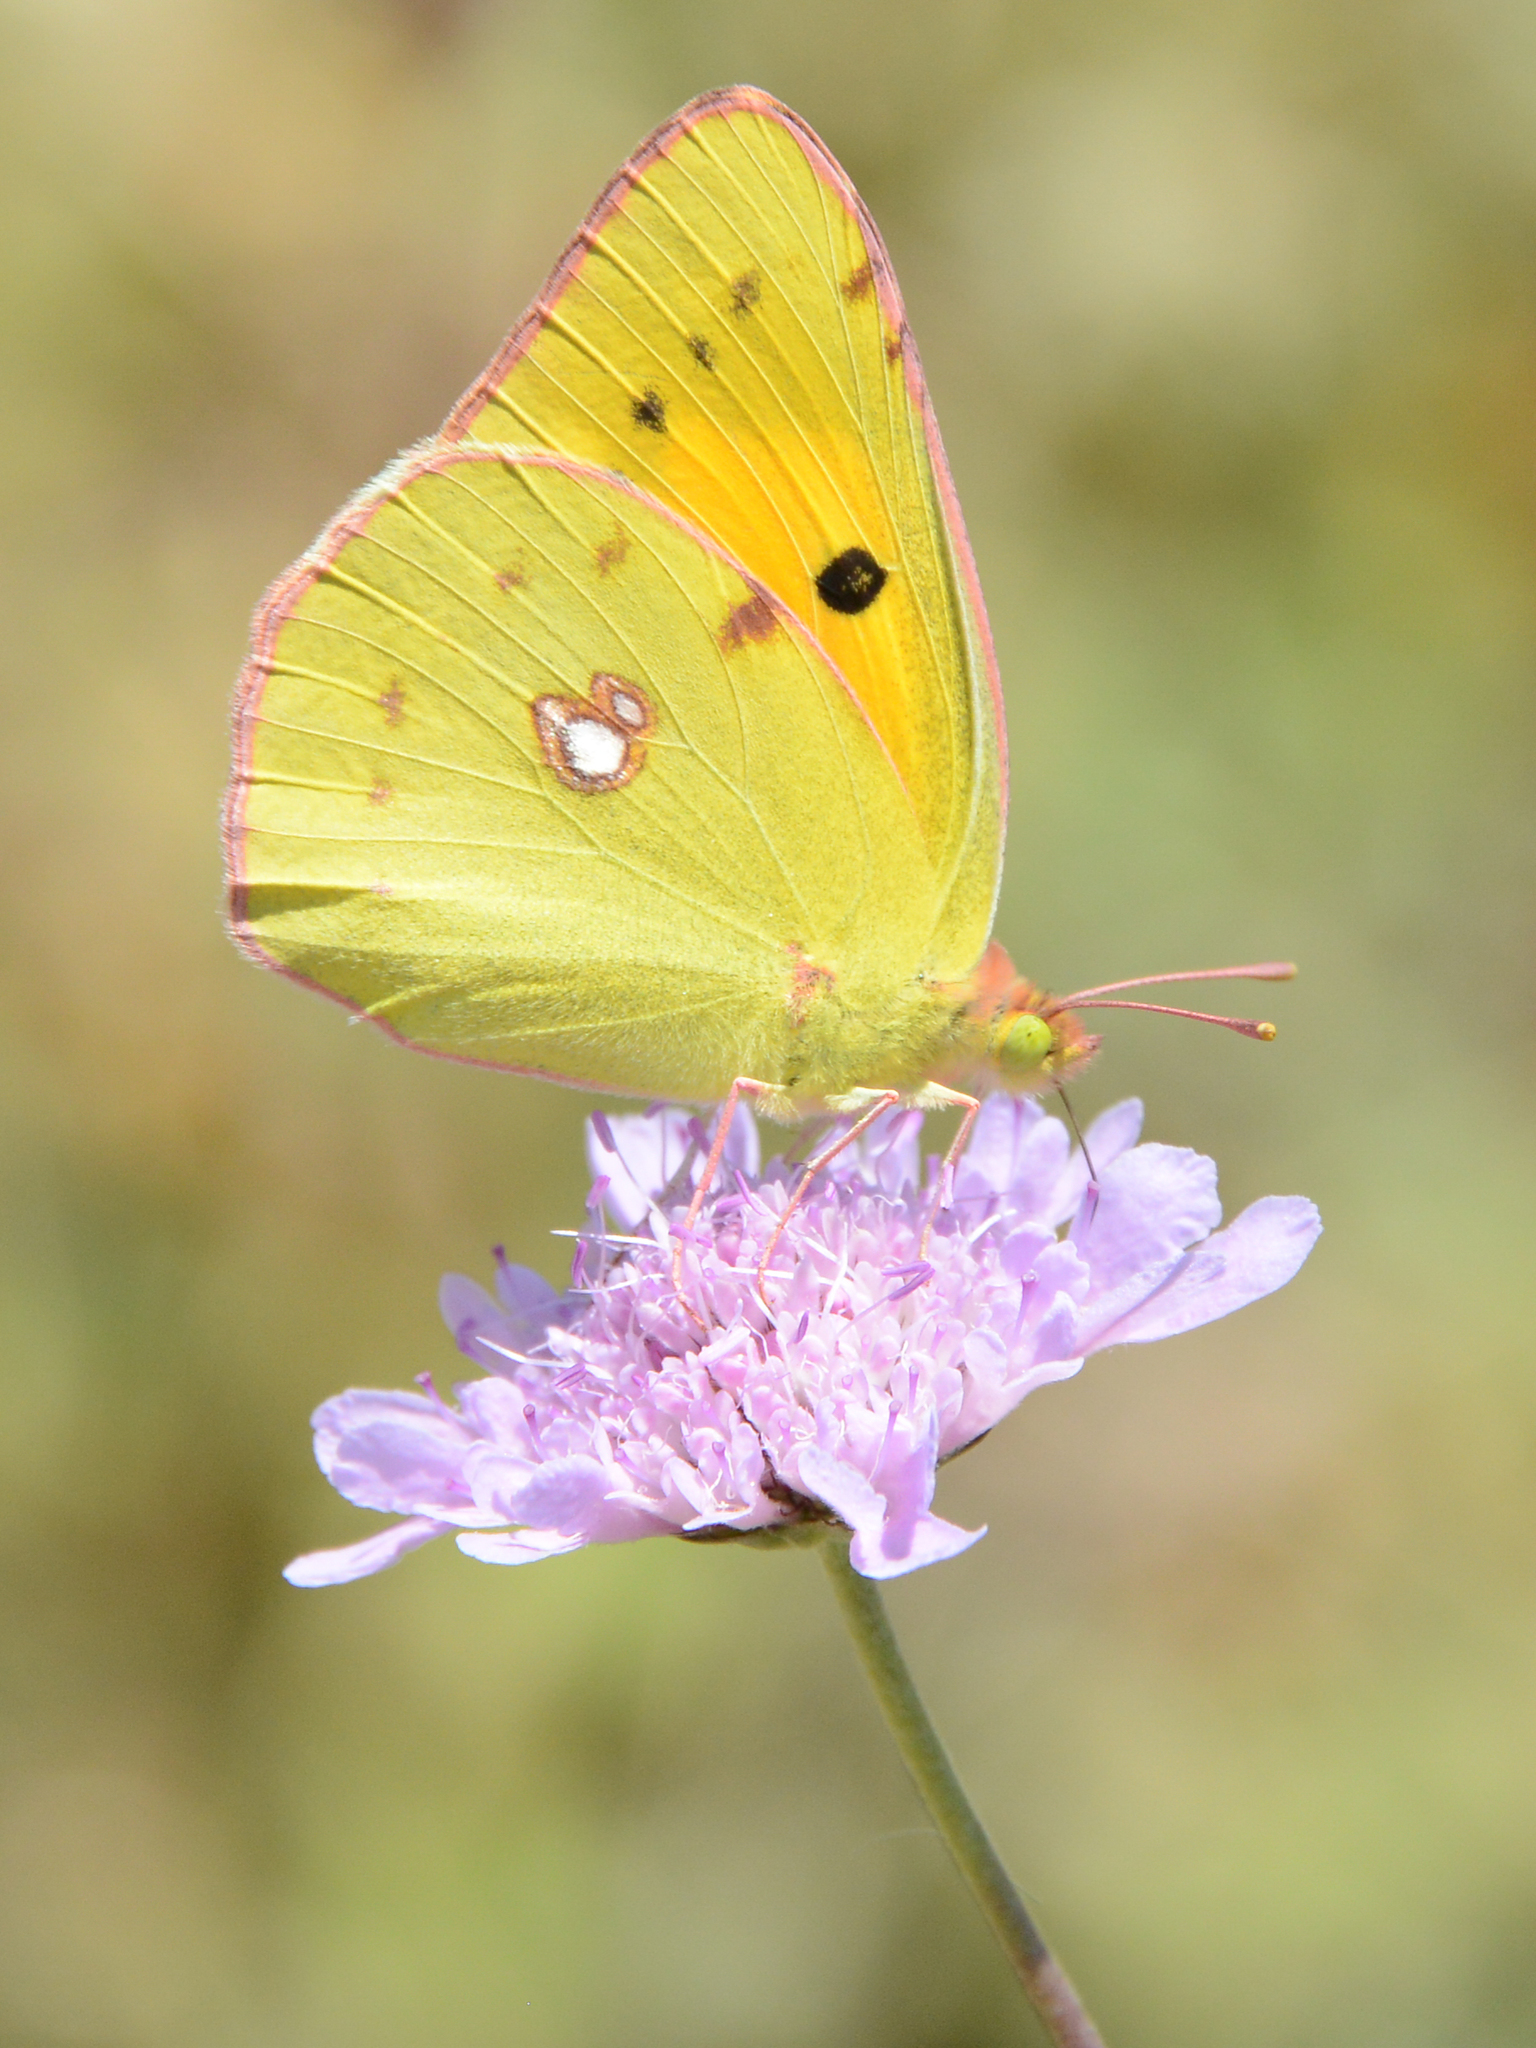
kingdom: Animalia
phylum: Arthropoda
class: Insecta
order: Lepidoptera
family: Pieridae
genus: Colias
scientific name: Colias croceus
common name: Clouded yellow
